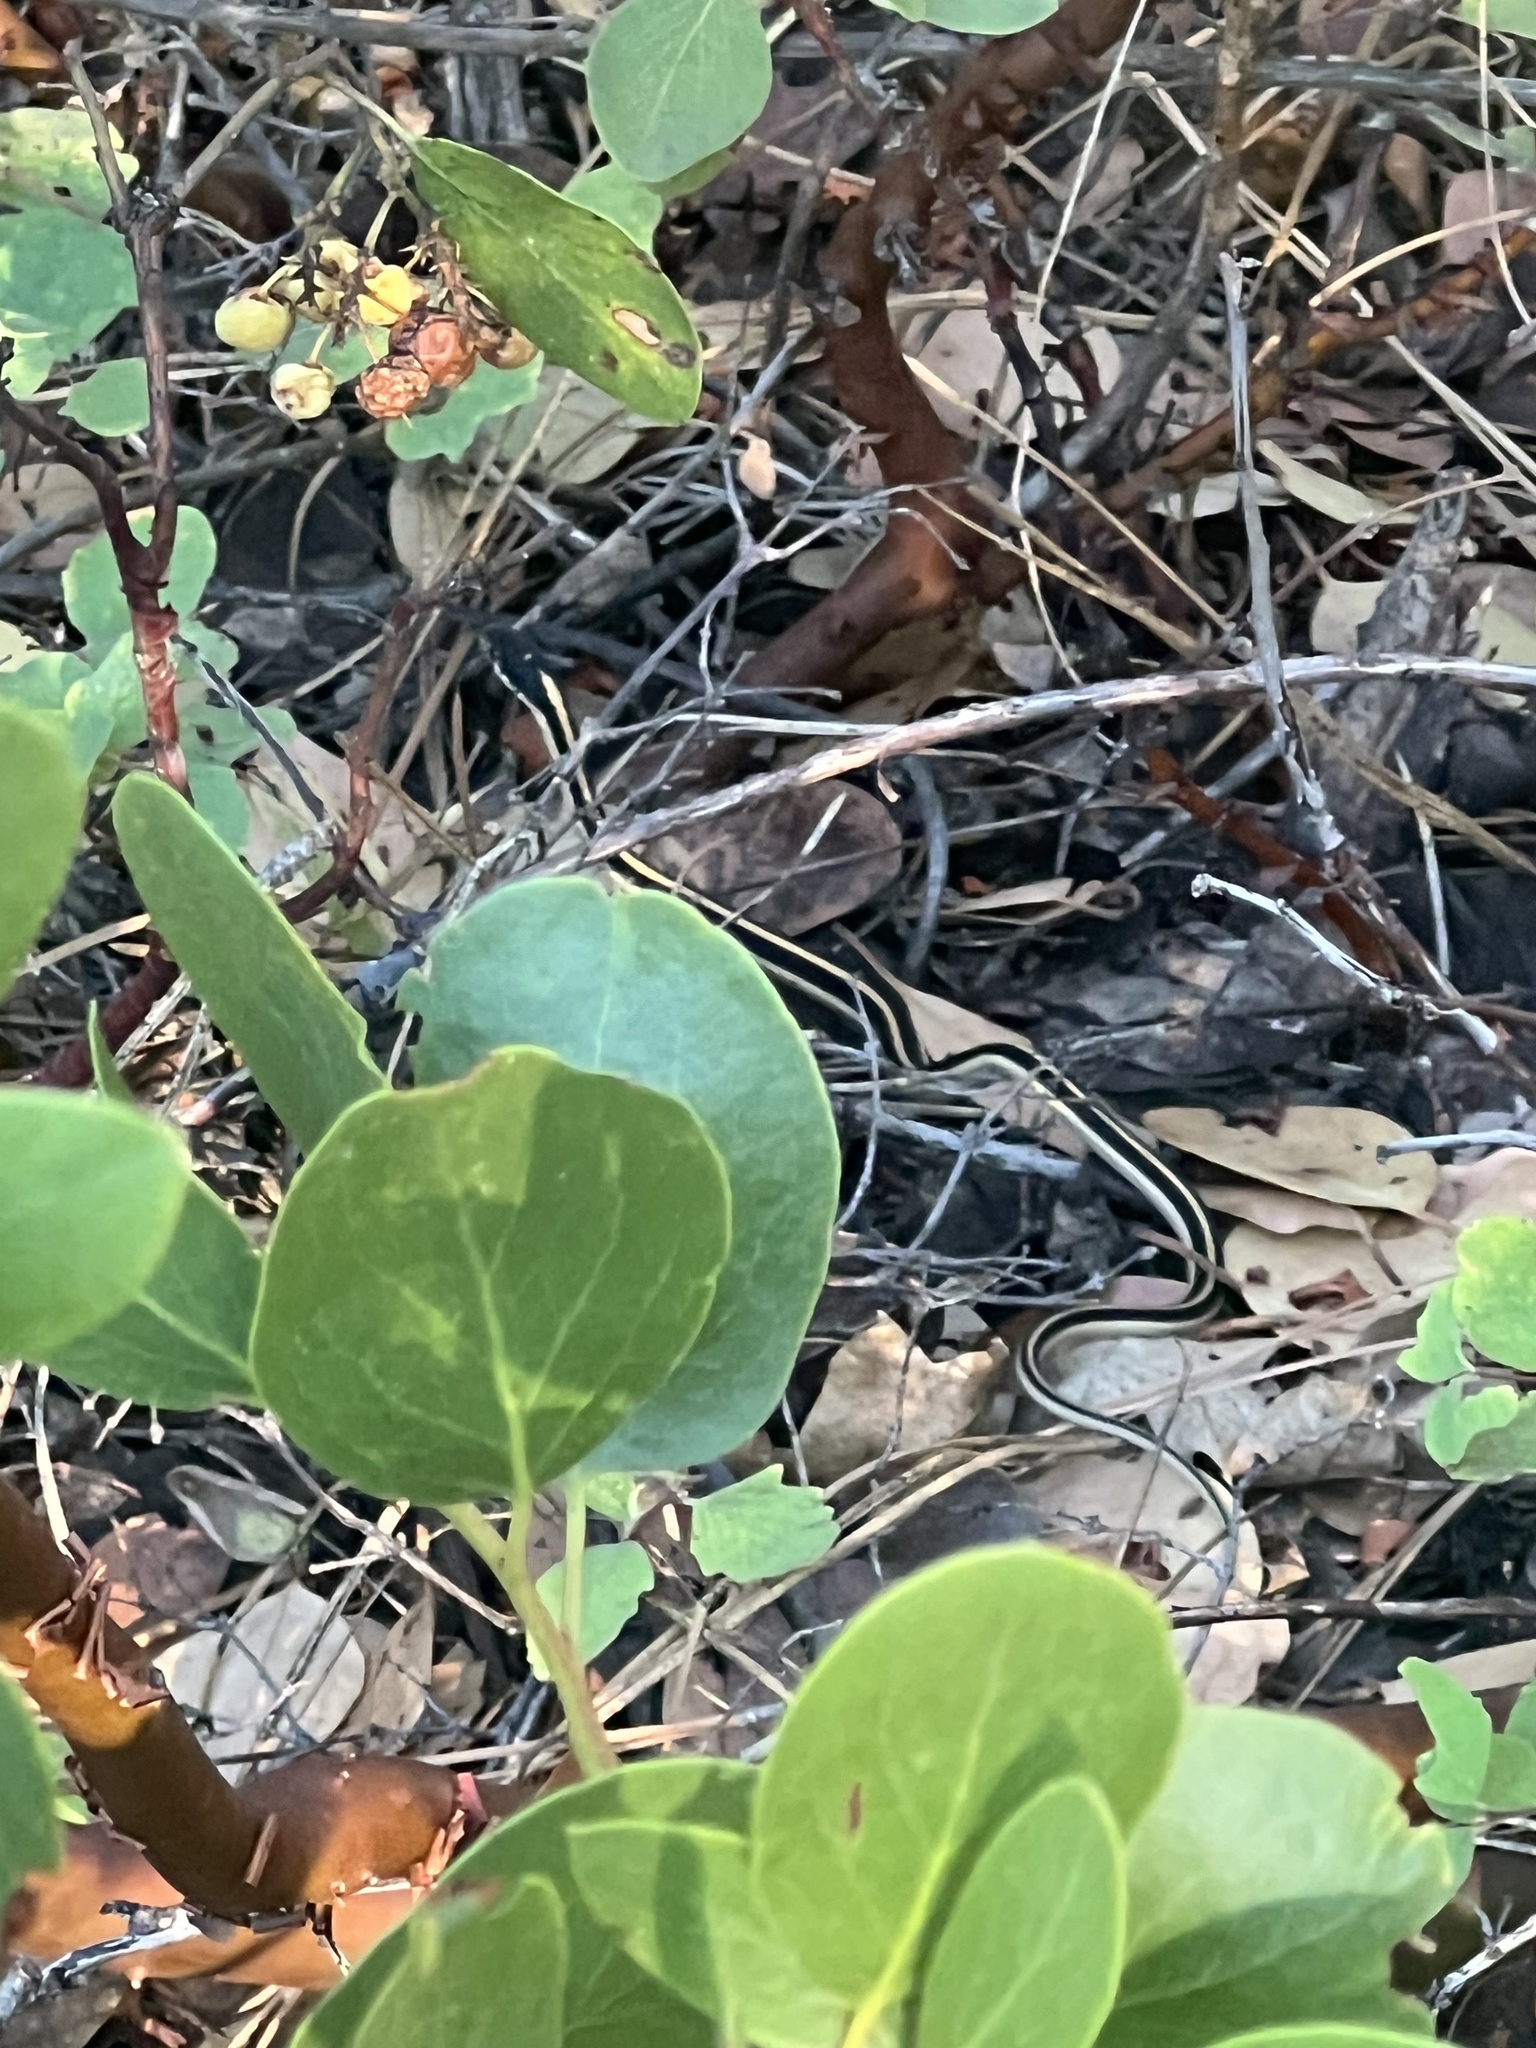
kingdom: Animalia
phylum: Chordata
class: Squamata
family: Colubridae
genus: Thamnophis
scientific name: Thamnophis elegans
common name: Western terrestrial garter snake
